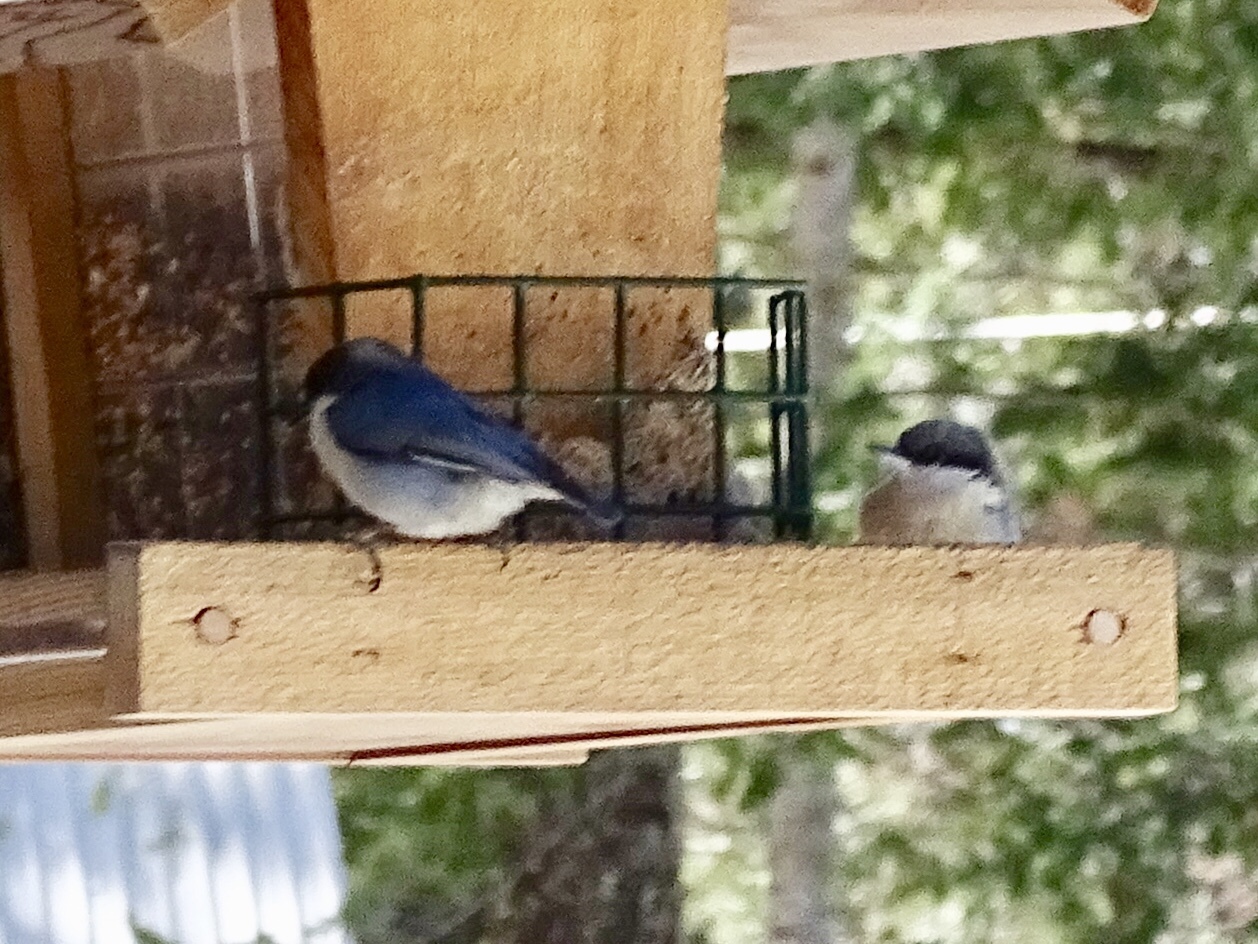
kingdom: Animalia
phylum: Chordata
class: Aves
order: Passeriformes
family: Sittidae
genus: Sitta
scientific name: Sitta pygmaea
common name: Pygmy nuthatch
